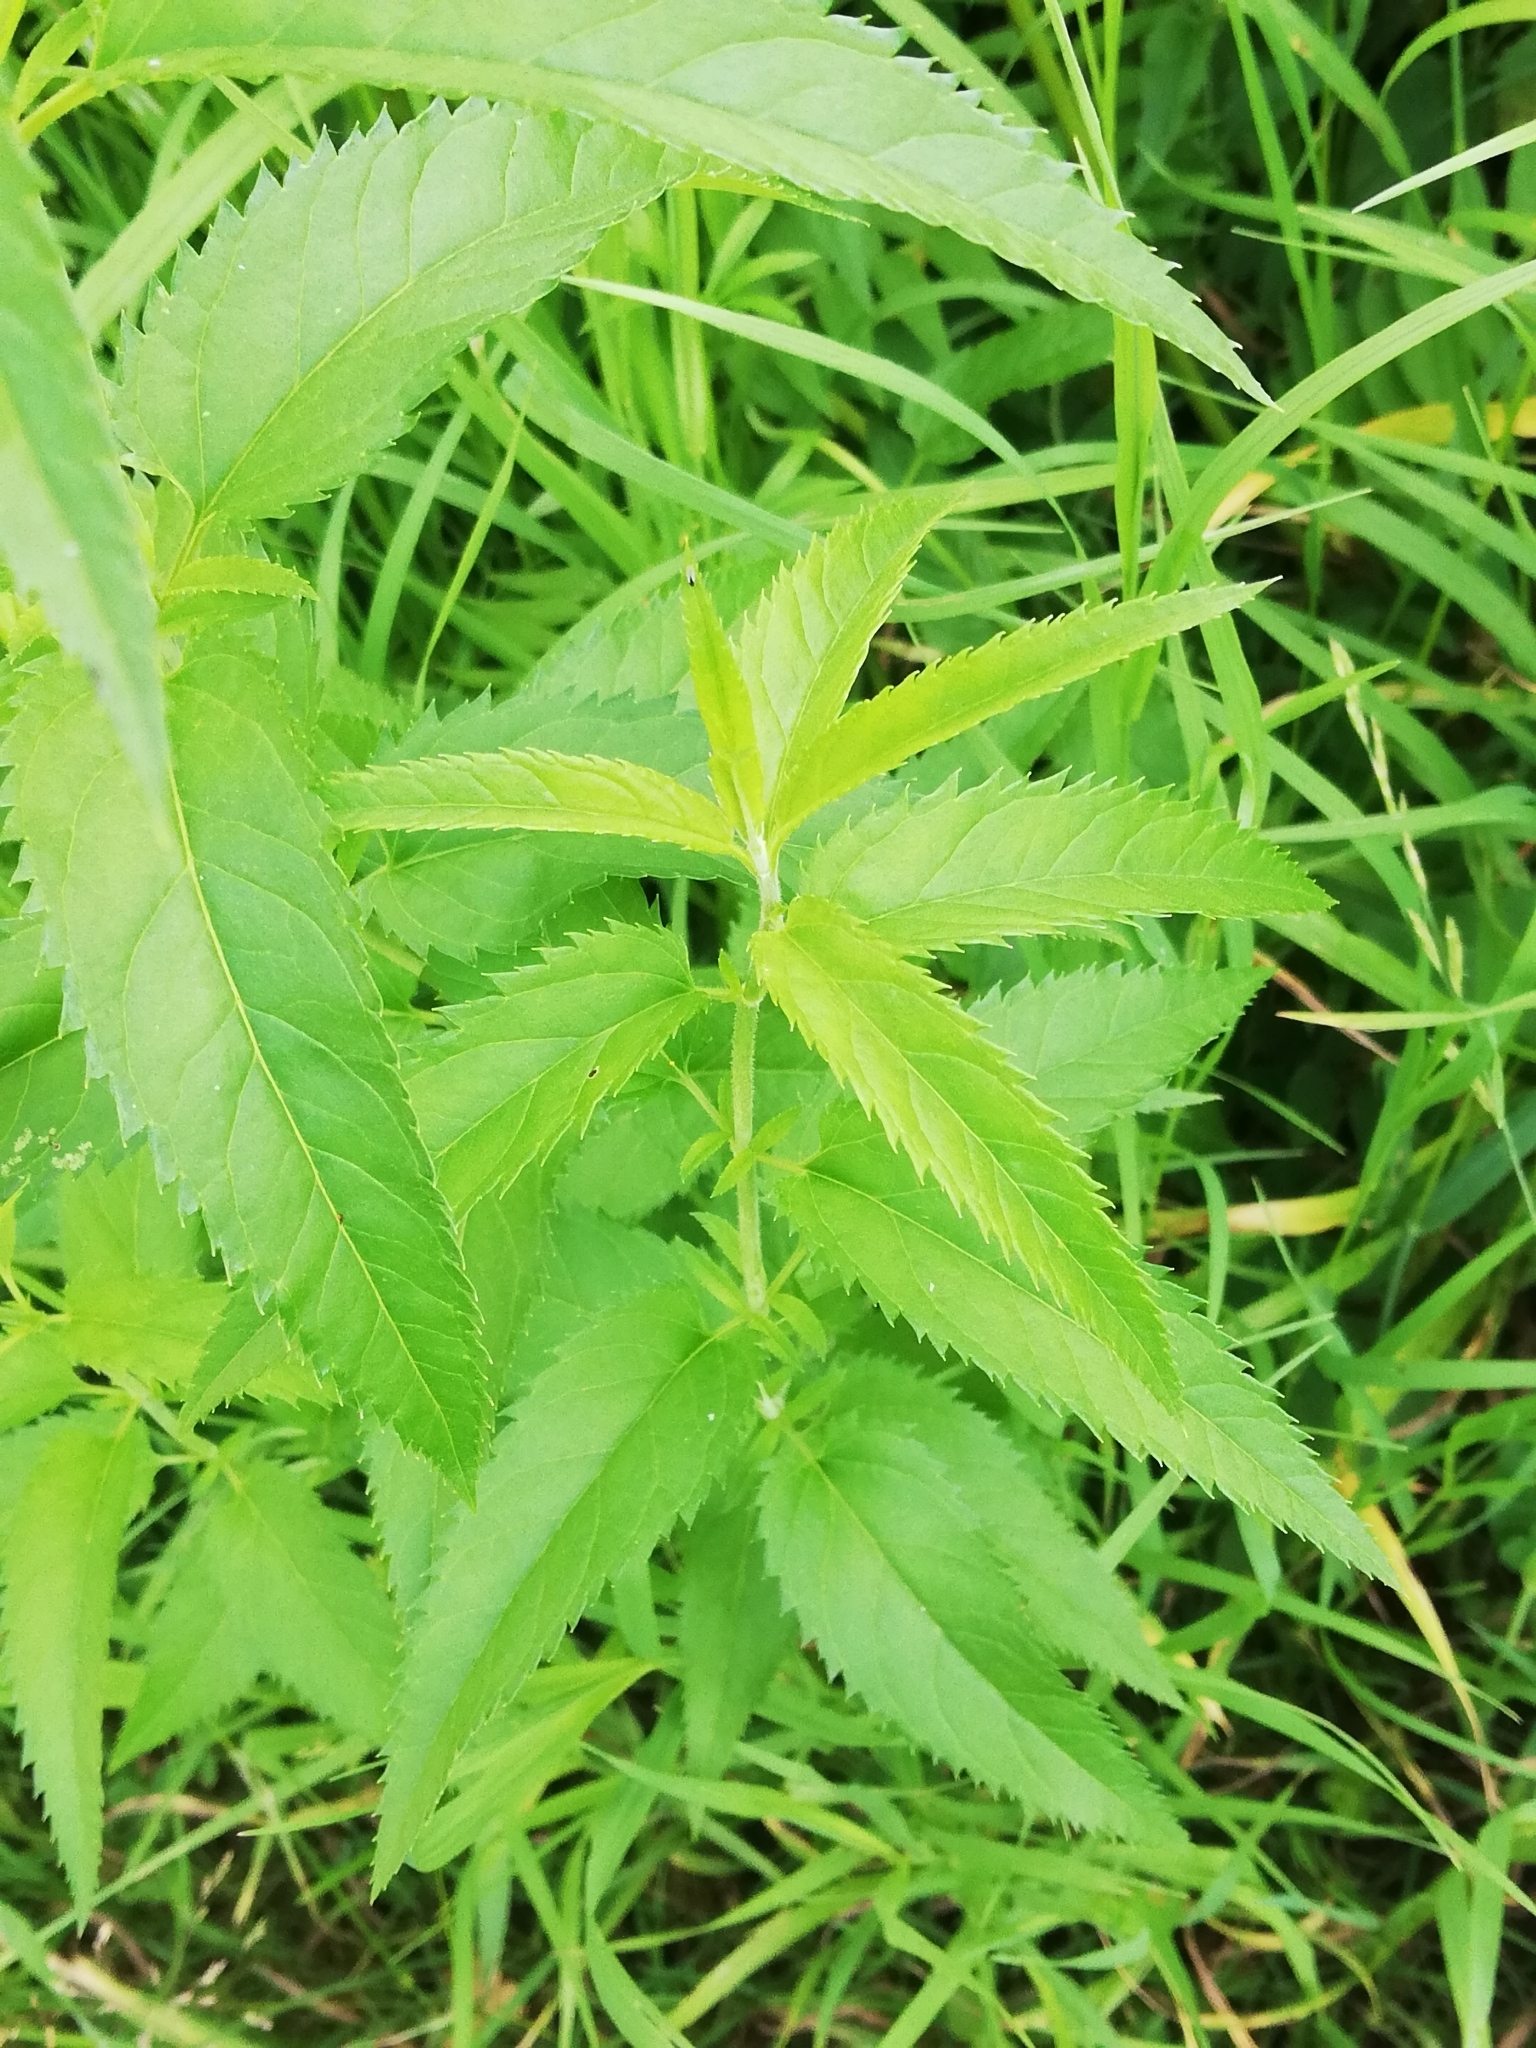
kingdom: Plantae
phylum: Tracheophyta
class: Magnoliopsida
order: Lamiales
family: Plantaginaceae
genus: Veronica
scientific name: Veronica longifolia
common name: Garden speedwell
